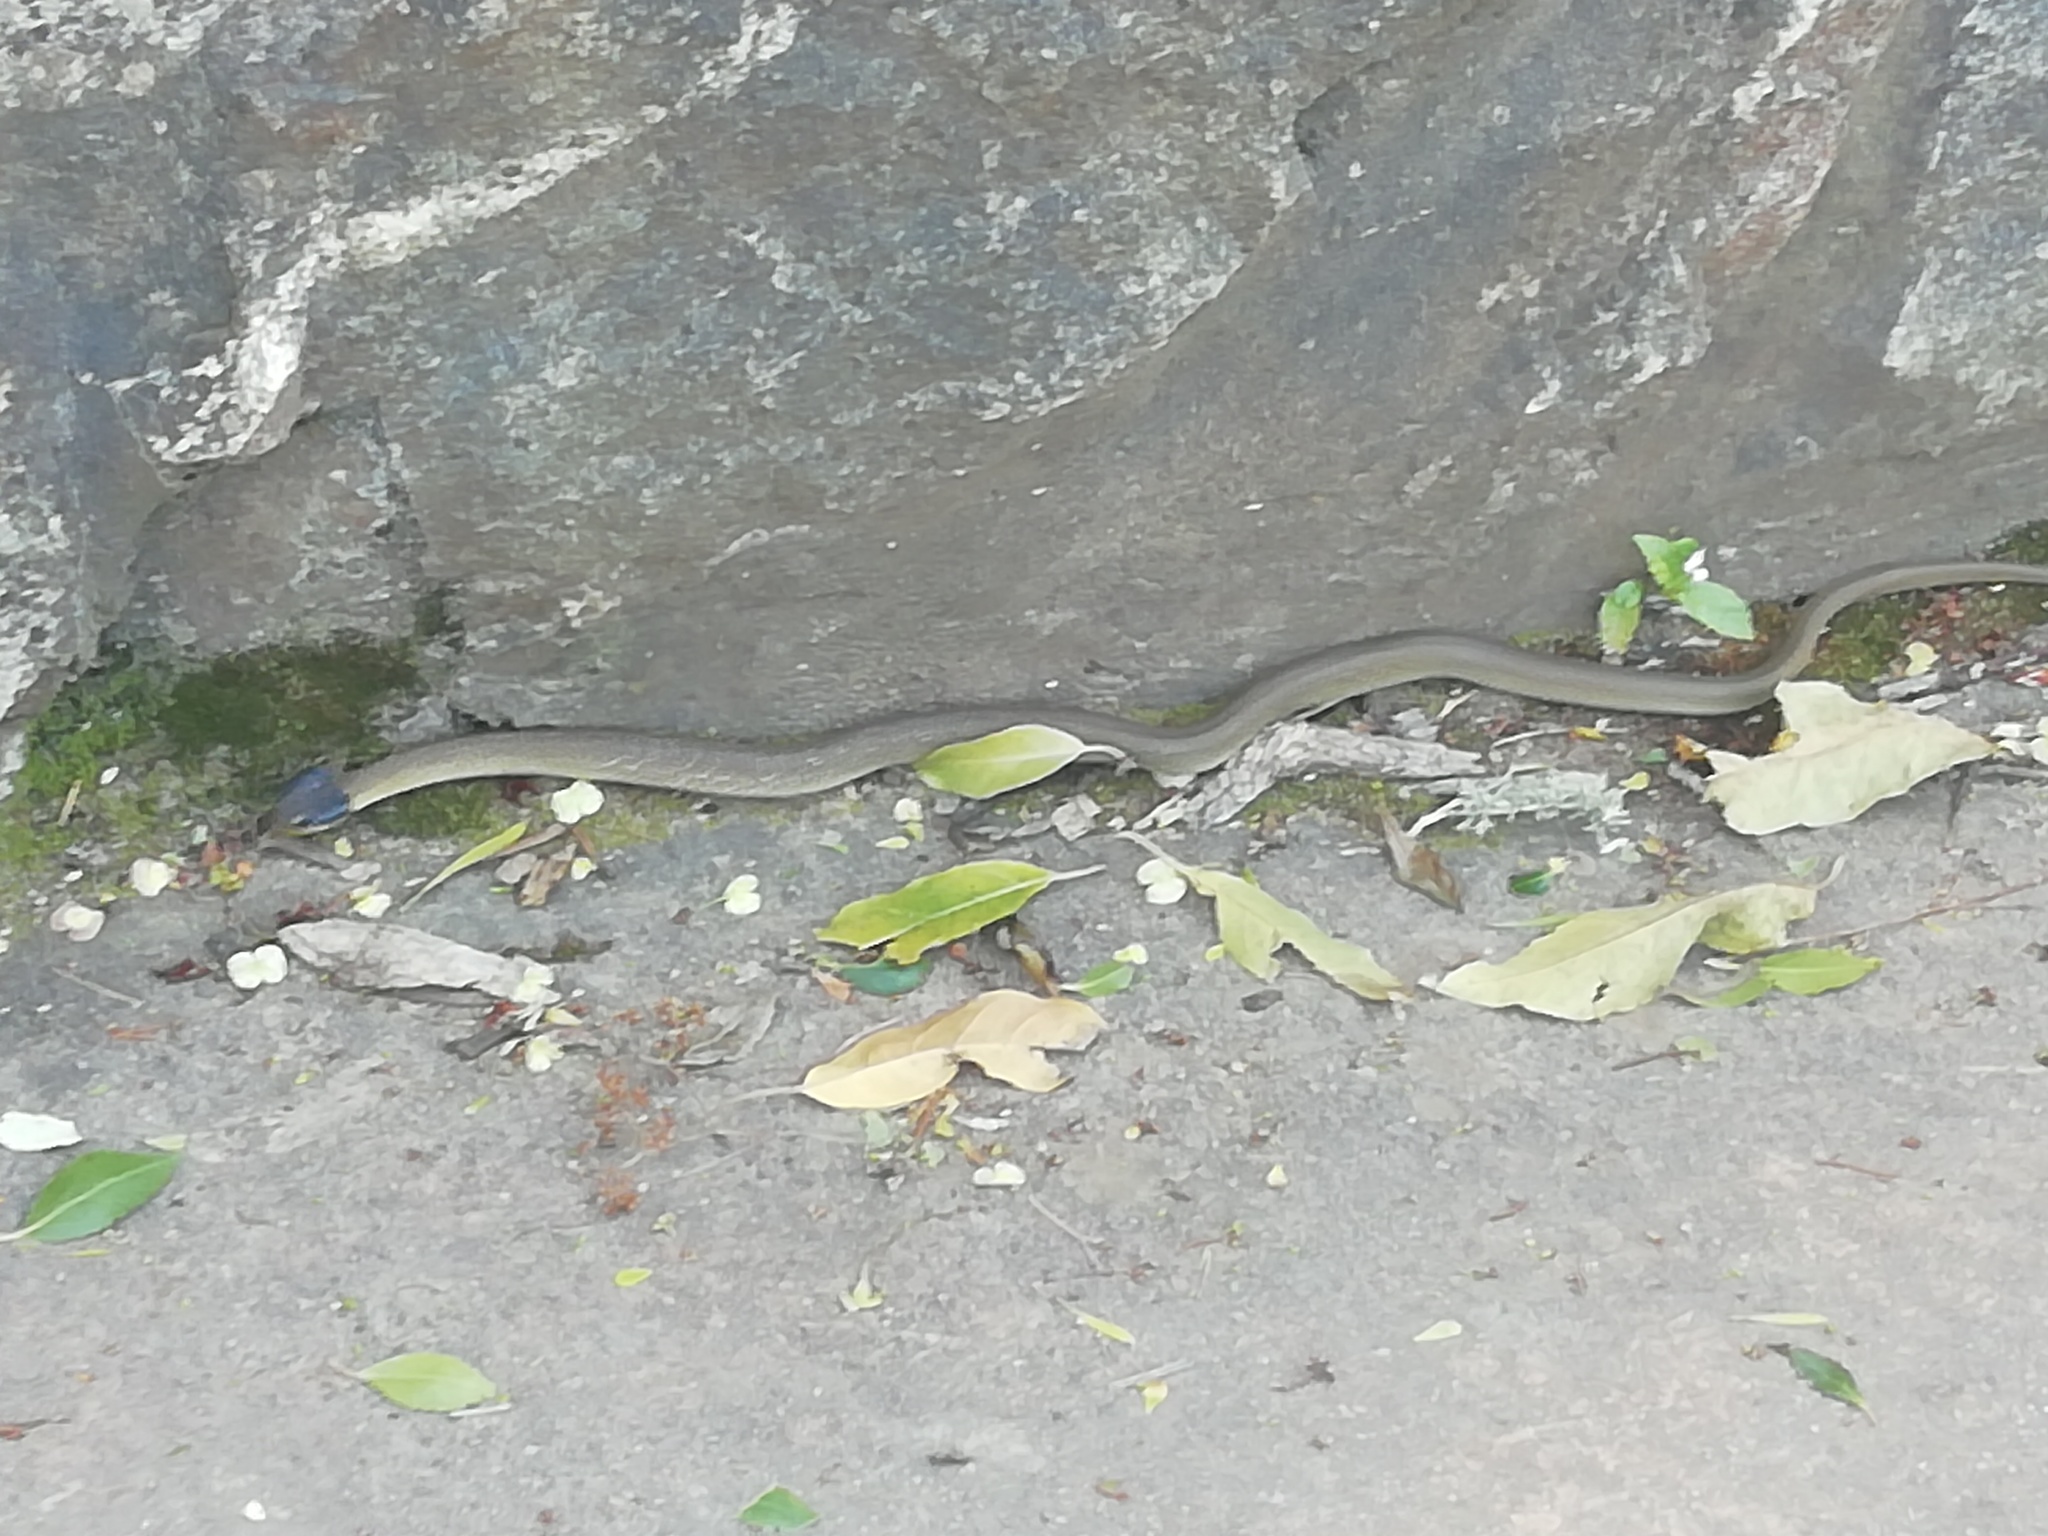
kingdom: Animalia
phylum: Chordata
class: Squamata
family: Colubridae
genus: Crotaphopeltis
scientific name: Crotaphopeltis hotamboeia
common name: Red-lipped snake
